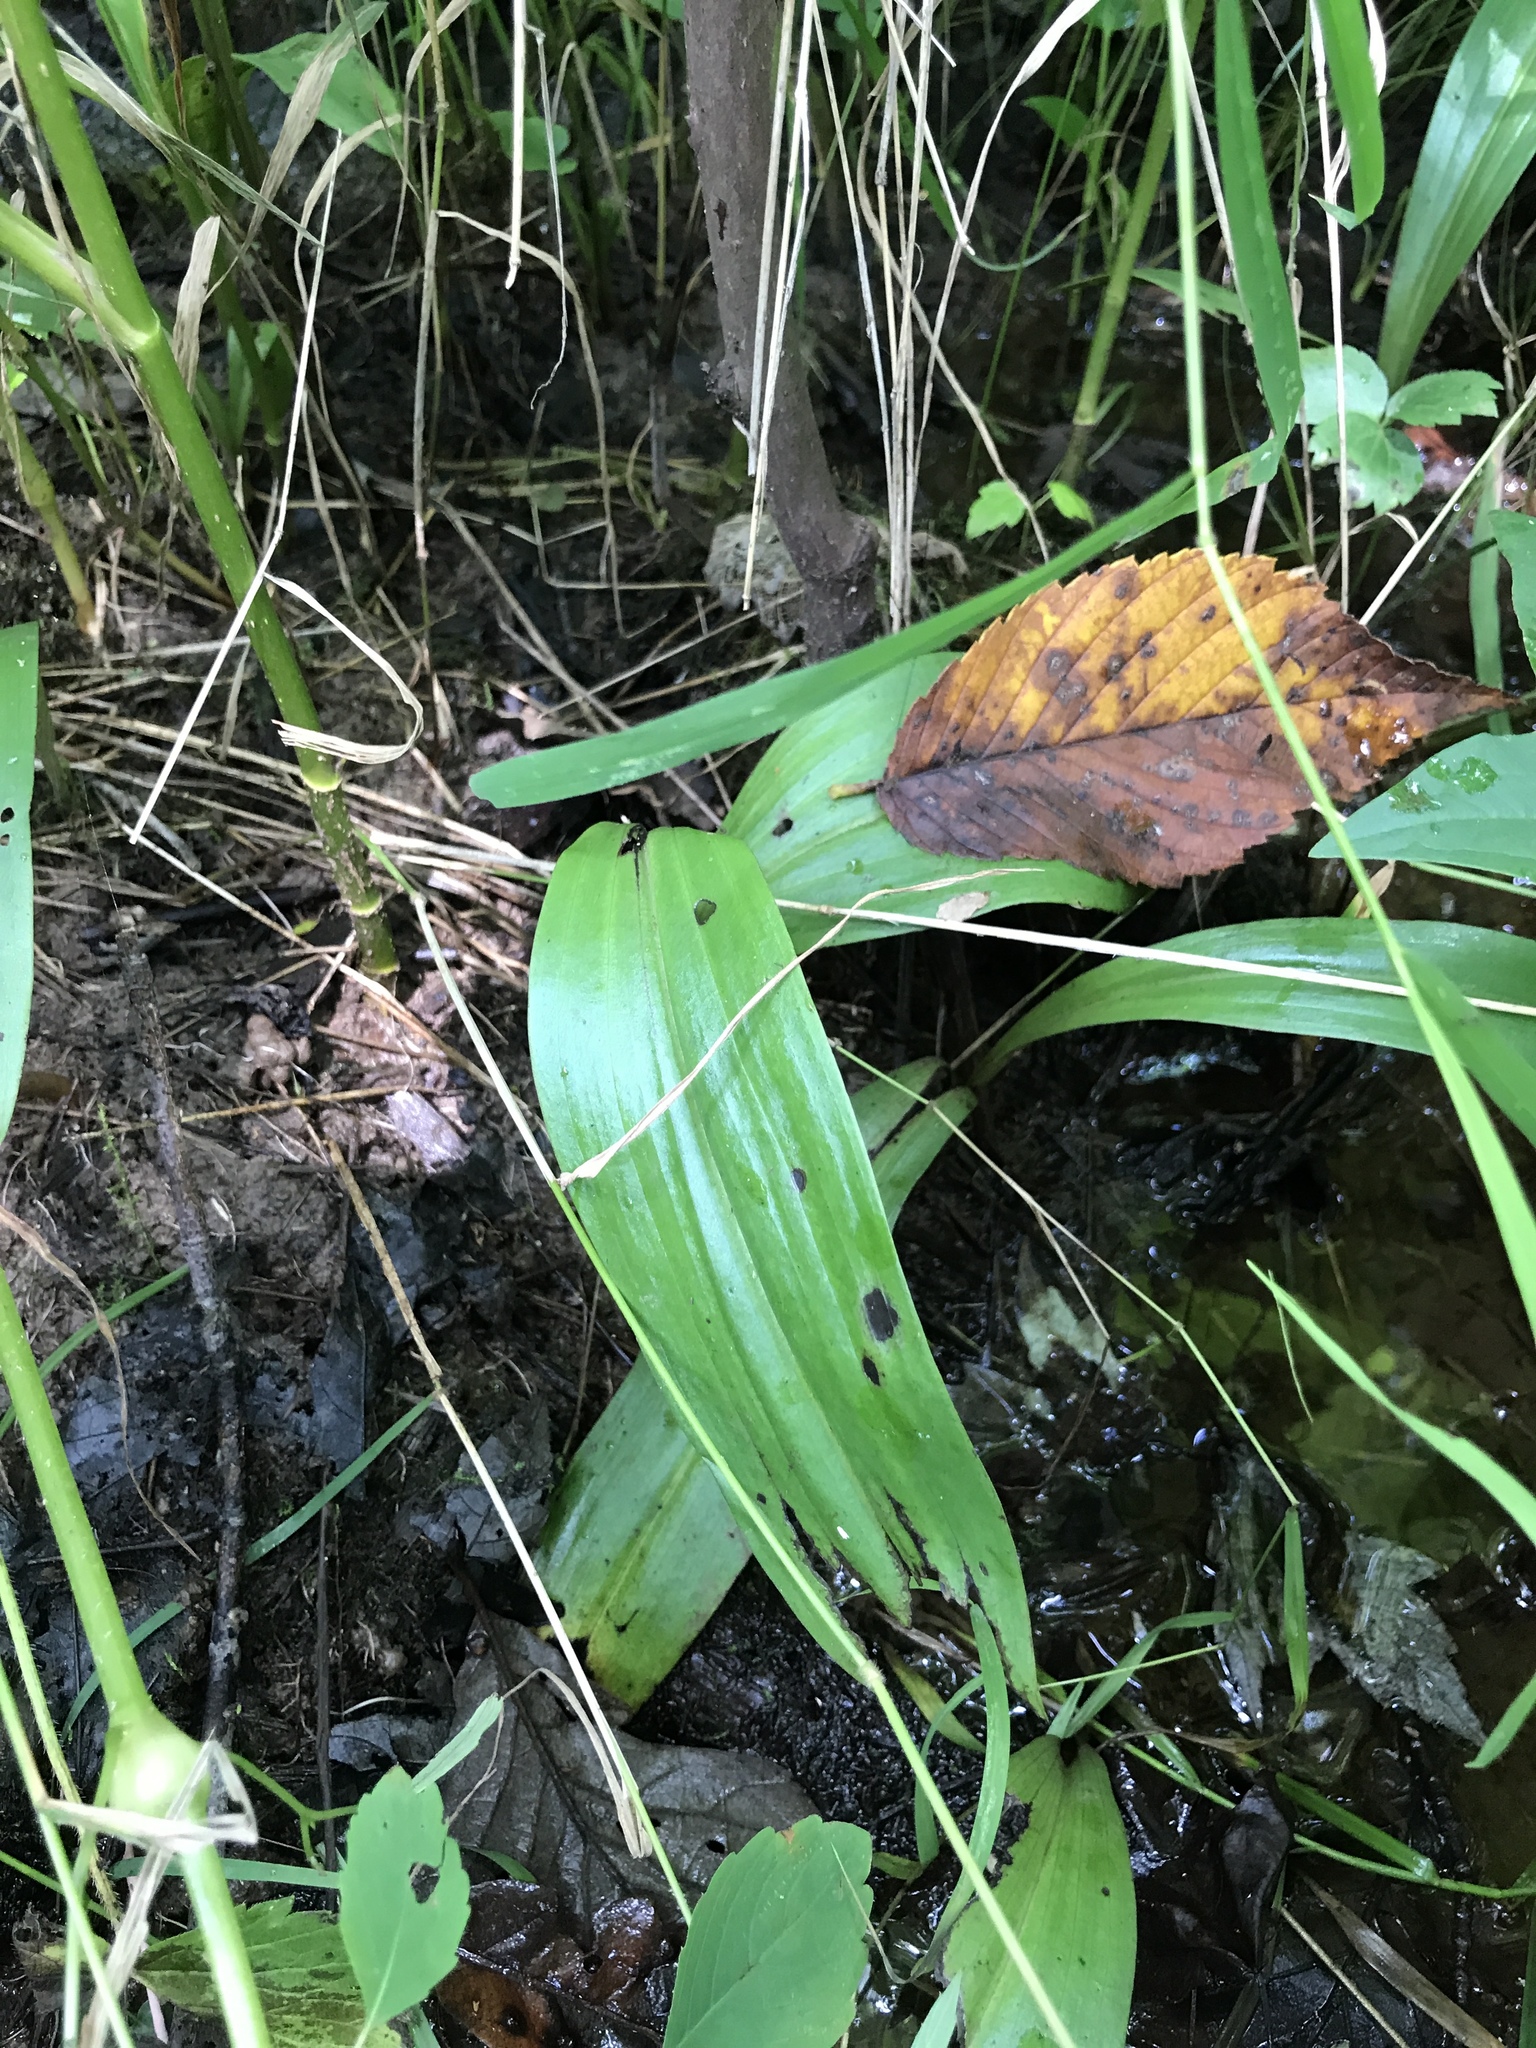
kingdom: Plantae
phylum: Tracheophyta
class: Liliopsida
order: Asparagales
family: Orchidaceae
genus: Platanthera
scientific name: Platanthera flava
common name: Gypsy-spikes
